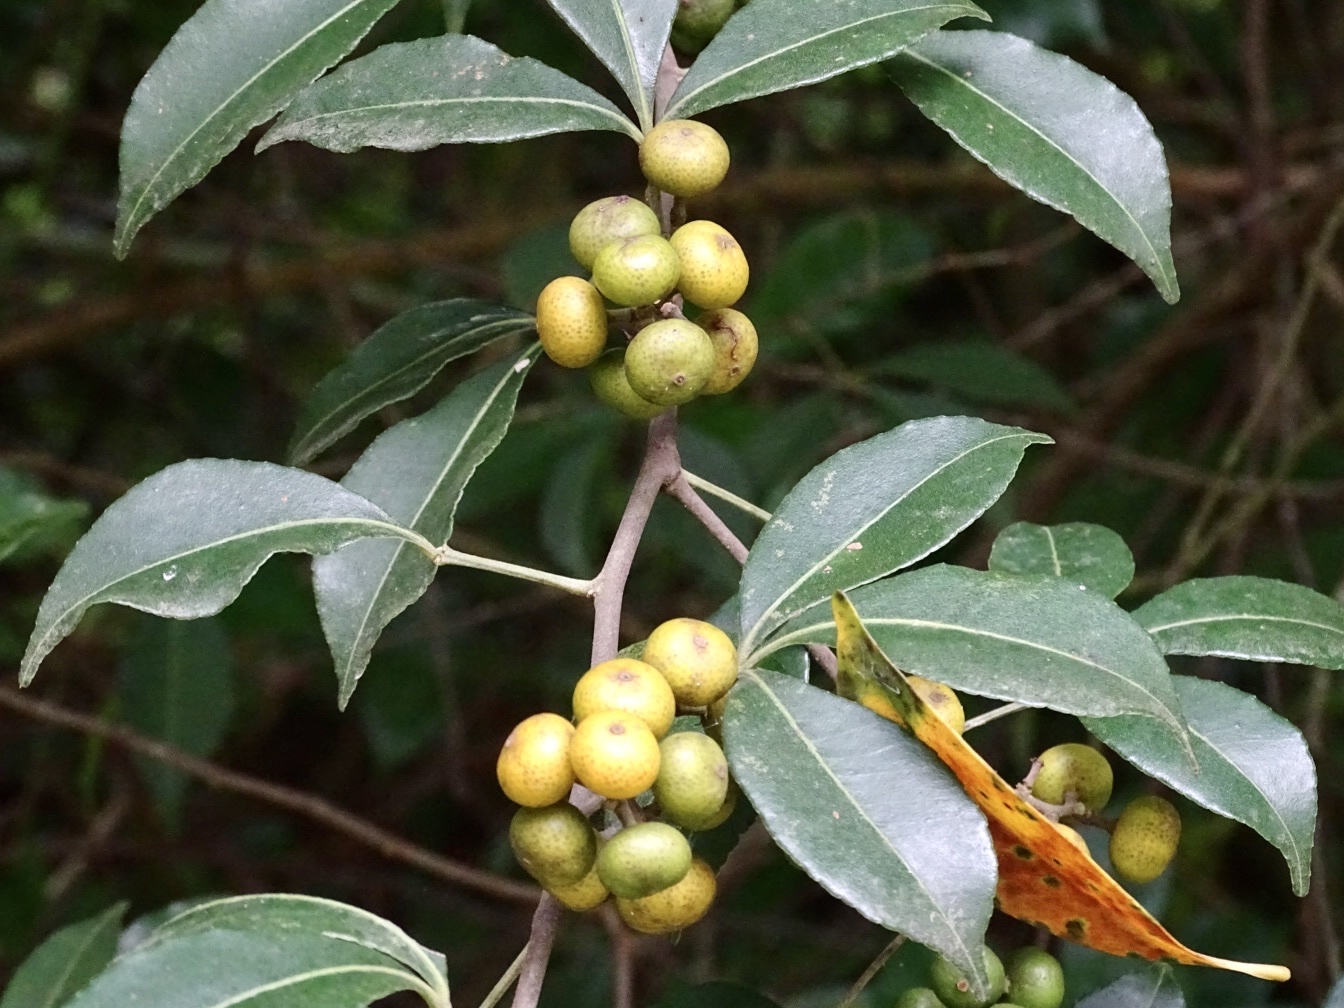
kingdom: Plantae
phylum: Tracheophyta
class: Magnoliopsida
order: Sapindales
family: Rutaceae
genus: Zanthoxylum
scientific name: Zanthoxylum asiaticum
